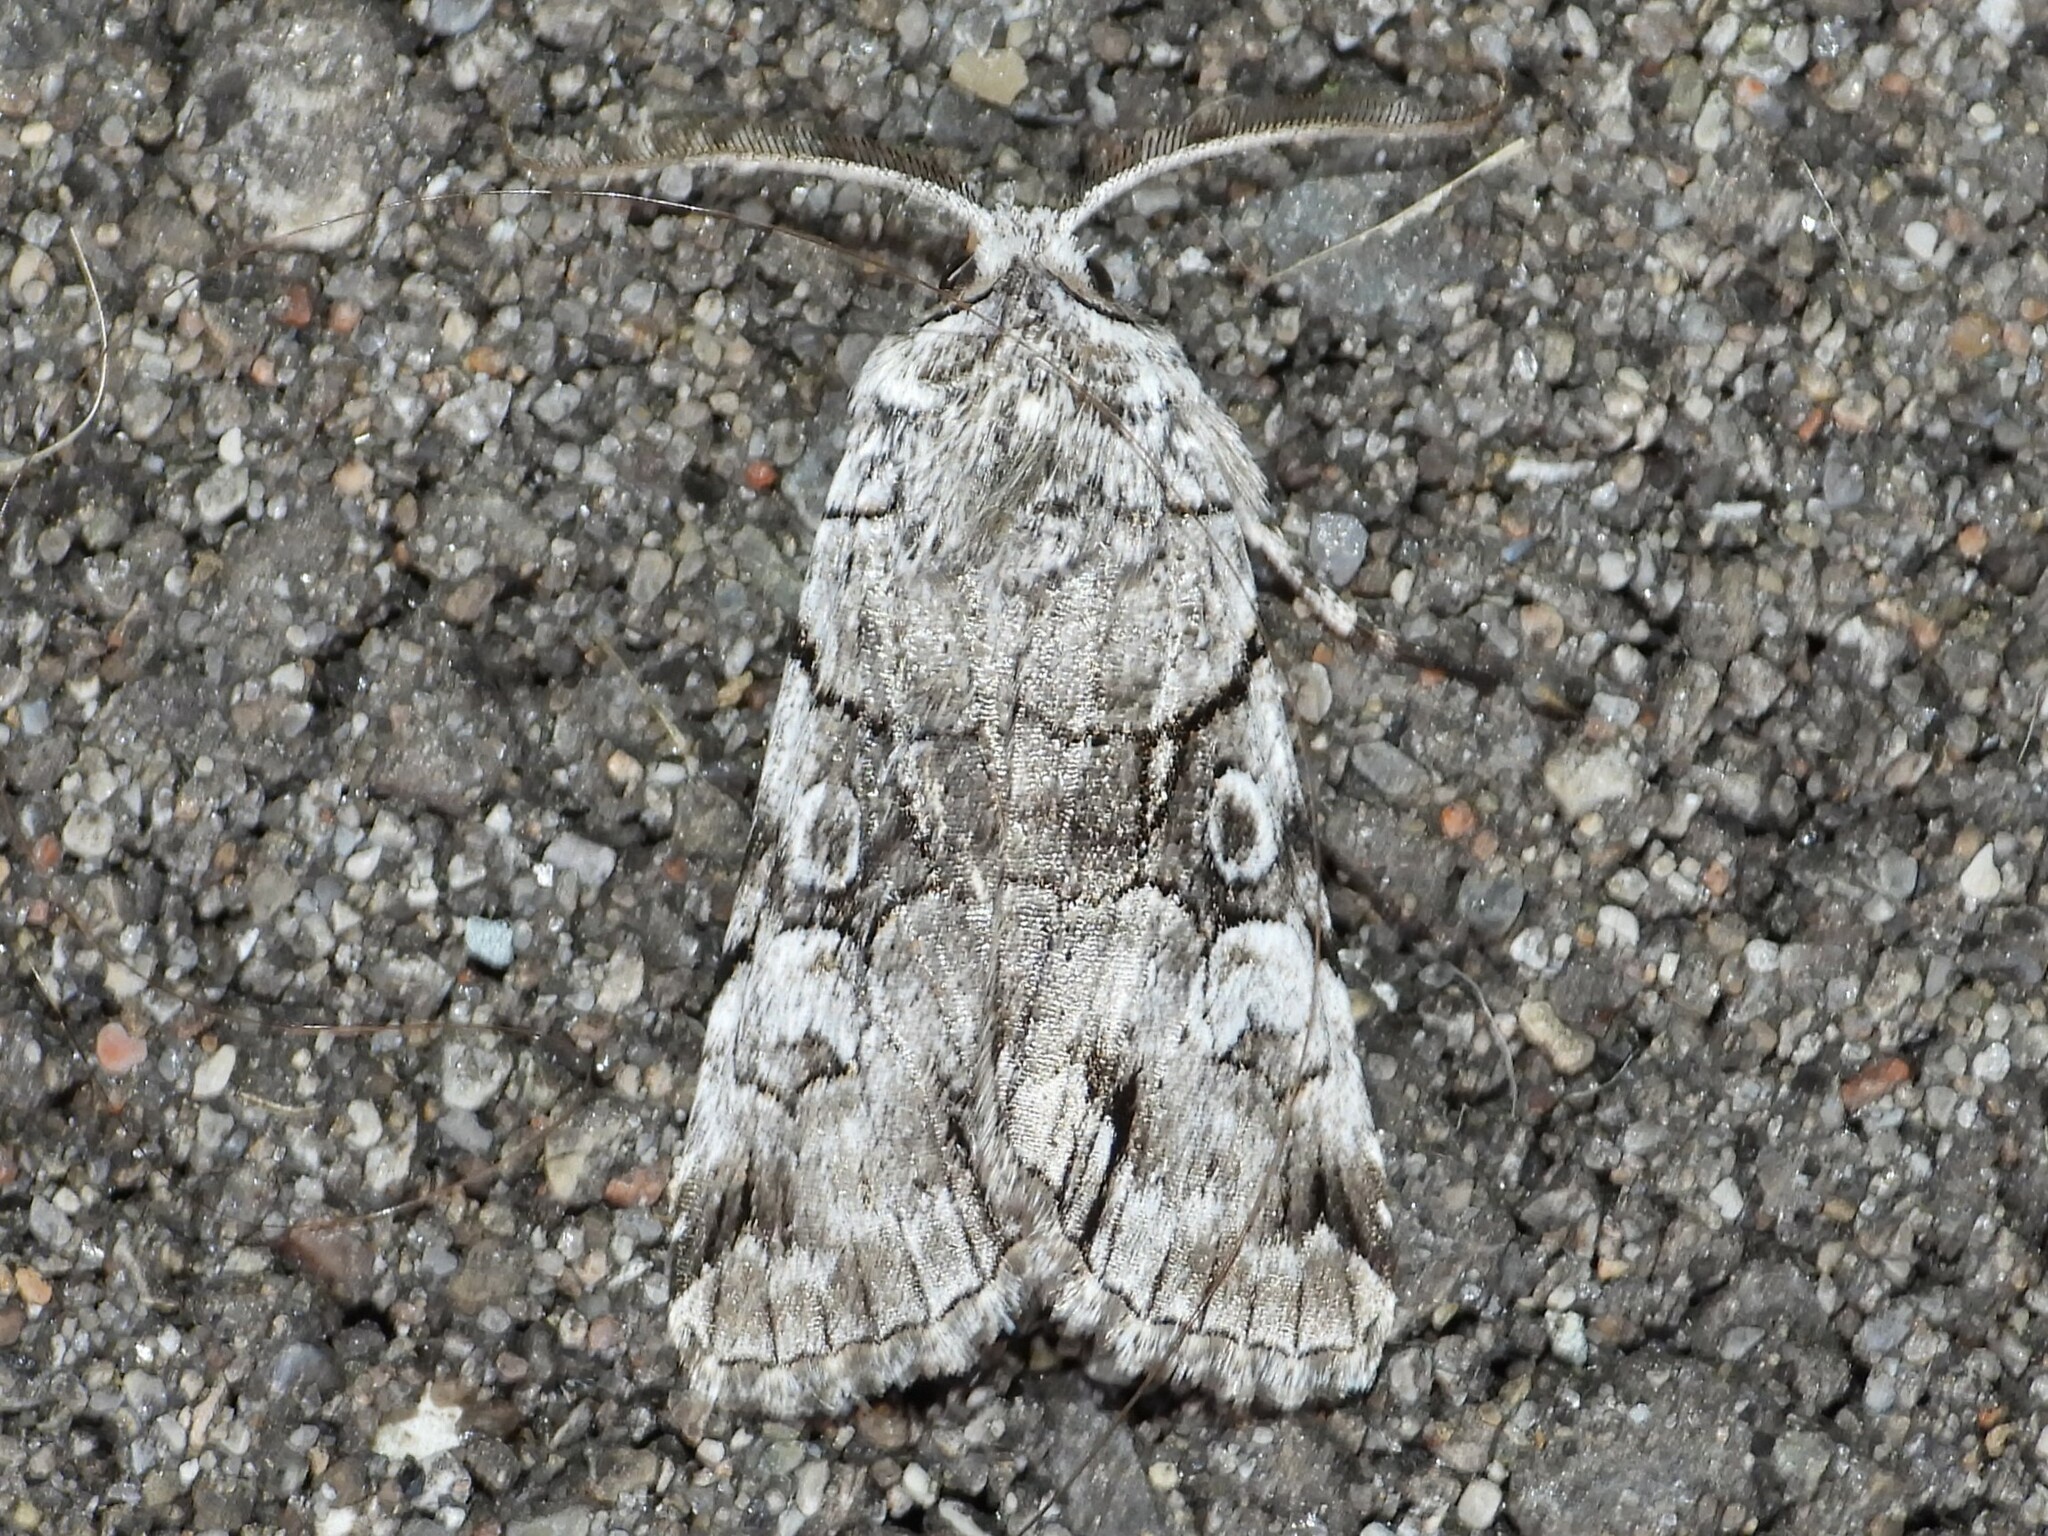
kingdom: Animalia
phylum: Arthropoda
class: Insecta
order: Lepidoptera
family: Noctuidae
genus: Sympistis
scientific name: Sympistis chionanthi
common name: Fringe-tree sallow
